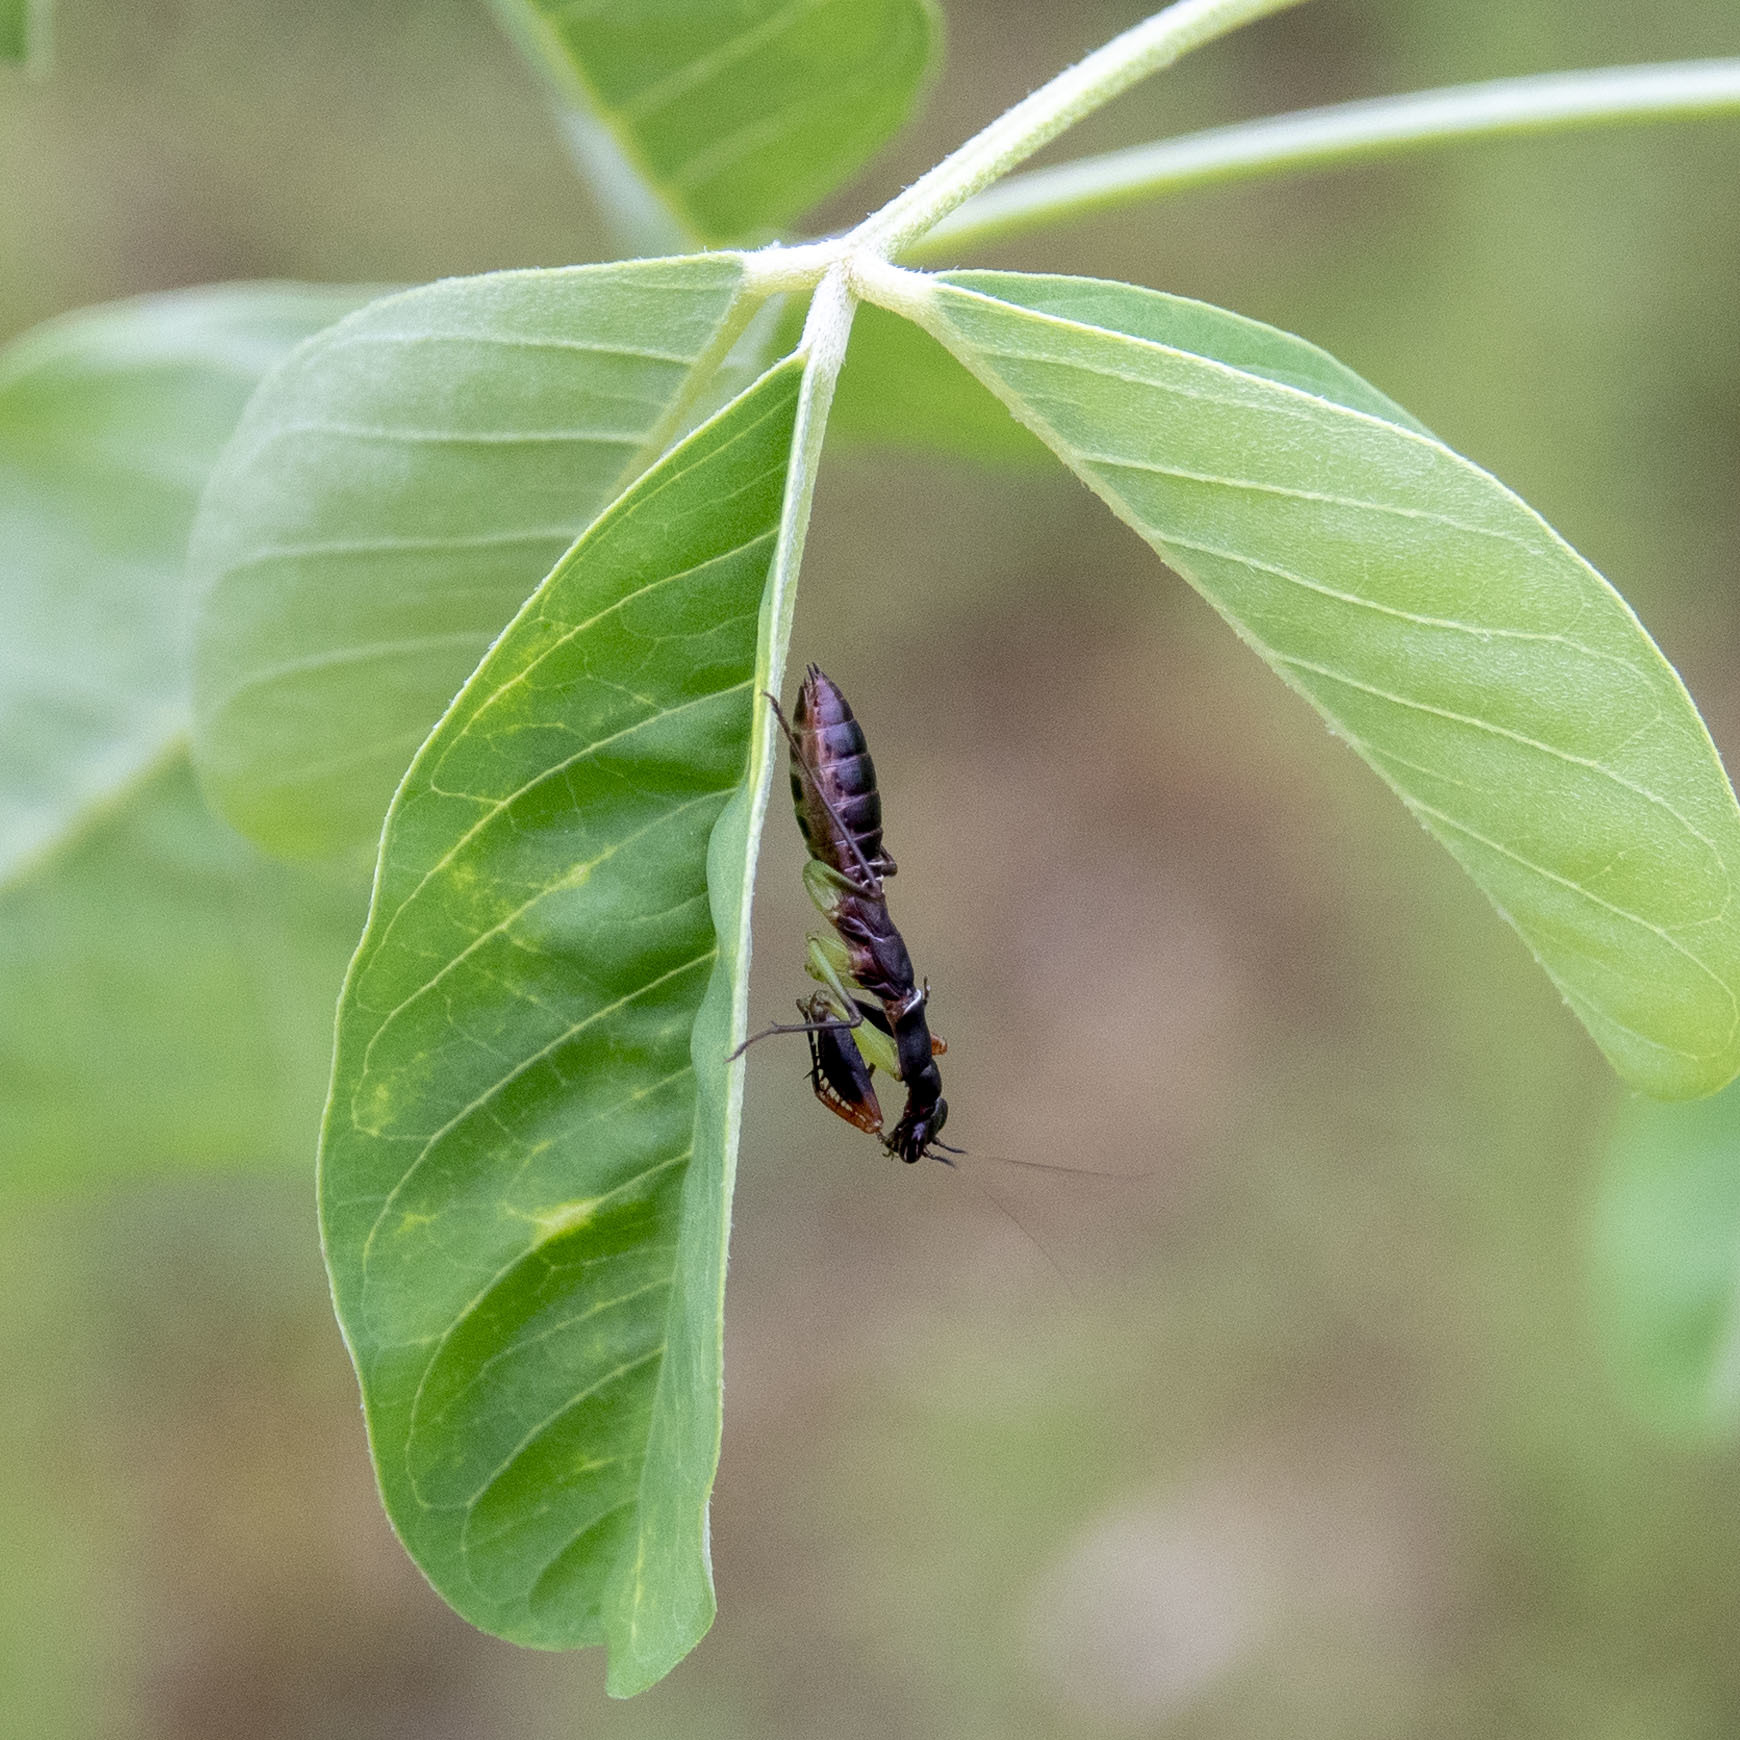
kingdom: Animalia
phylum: Arthropoda
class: Insecta
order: Mantodea
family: Hymenopodidae
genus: Odontomantis
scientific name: Odontomantis planiceps
